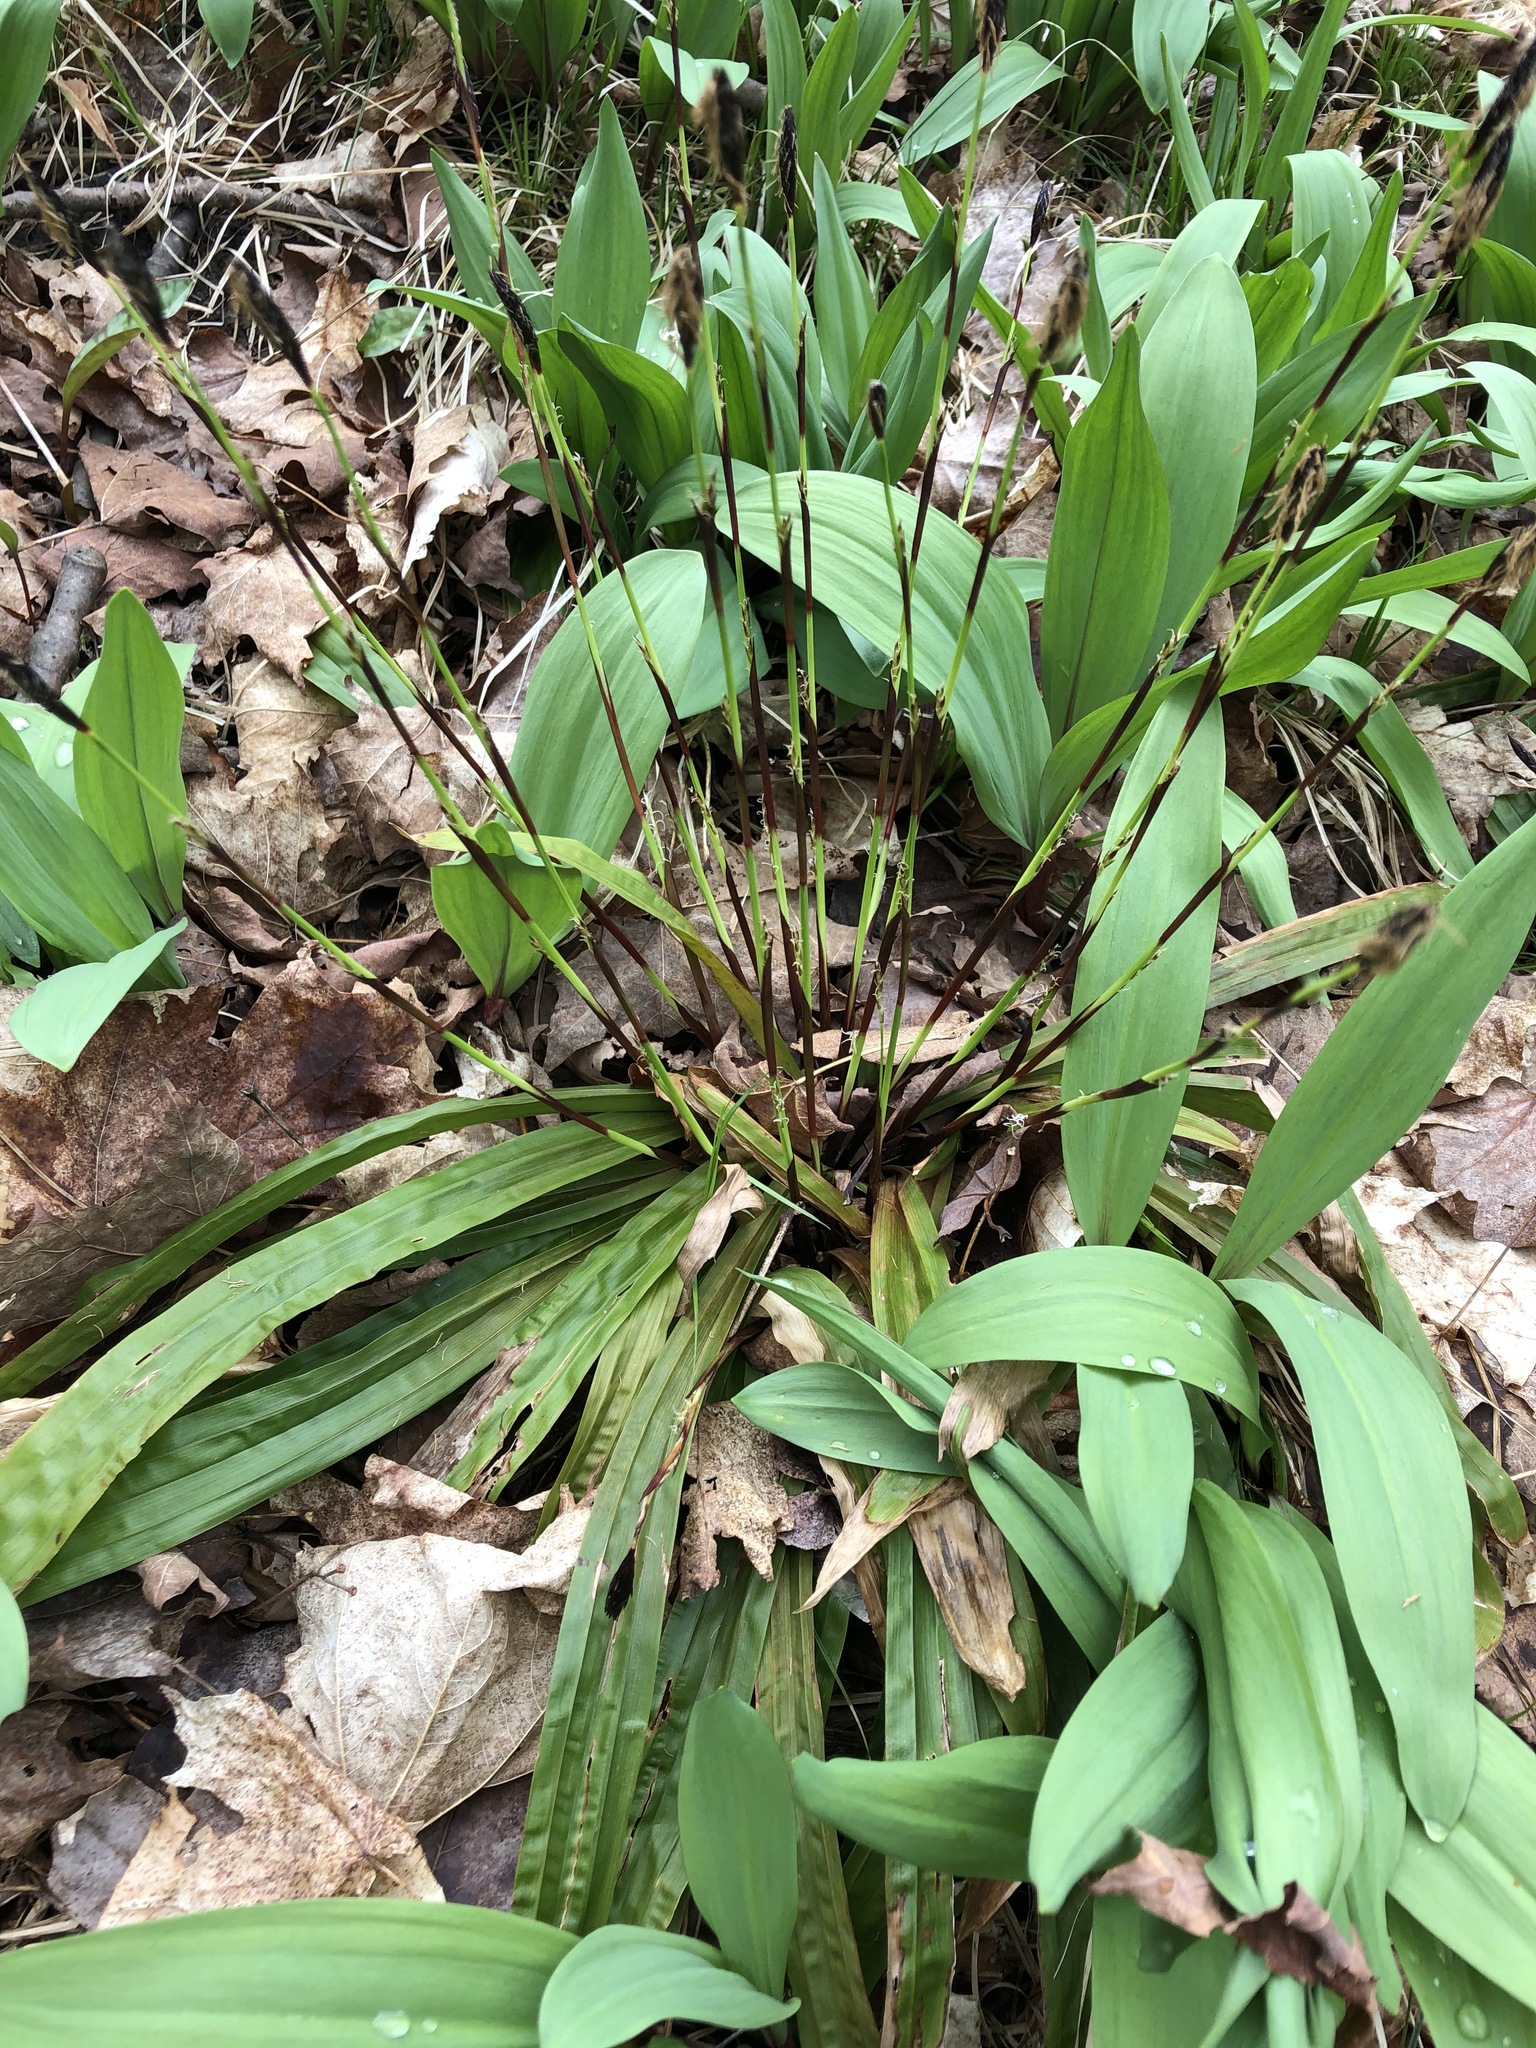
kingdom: Plantae
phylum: Tracheophyta
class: Liliopsida
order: Poales
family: Cyperaceae
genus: Carex
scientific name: Carex plantaginea
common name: Plantain-leaved sedge
